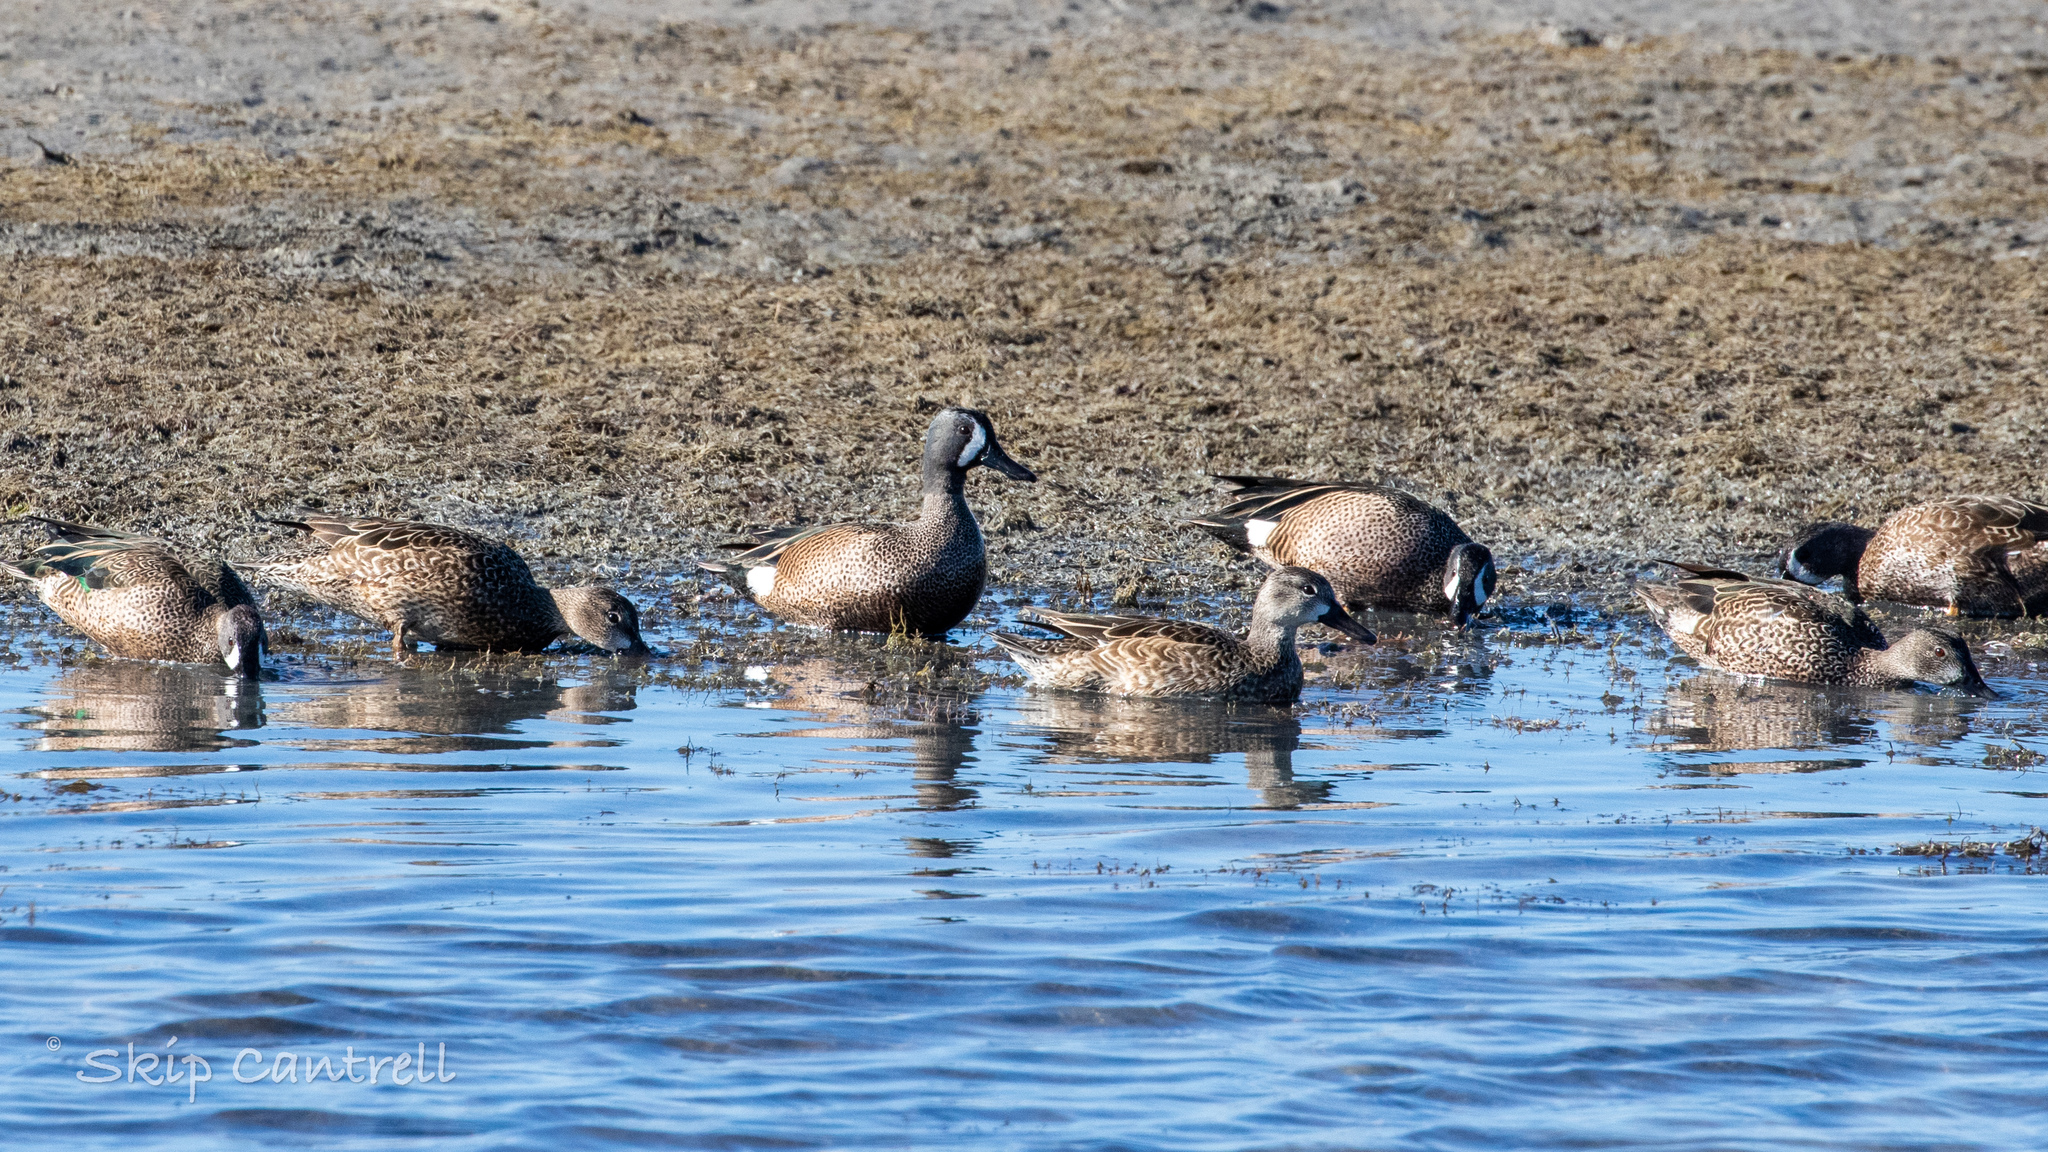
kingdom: Animalia
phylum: Chordata
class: Aves
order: Anseriformes
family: Anatidae
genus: Spatula
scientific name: Spatula discors
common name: Blue-winged teal
